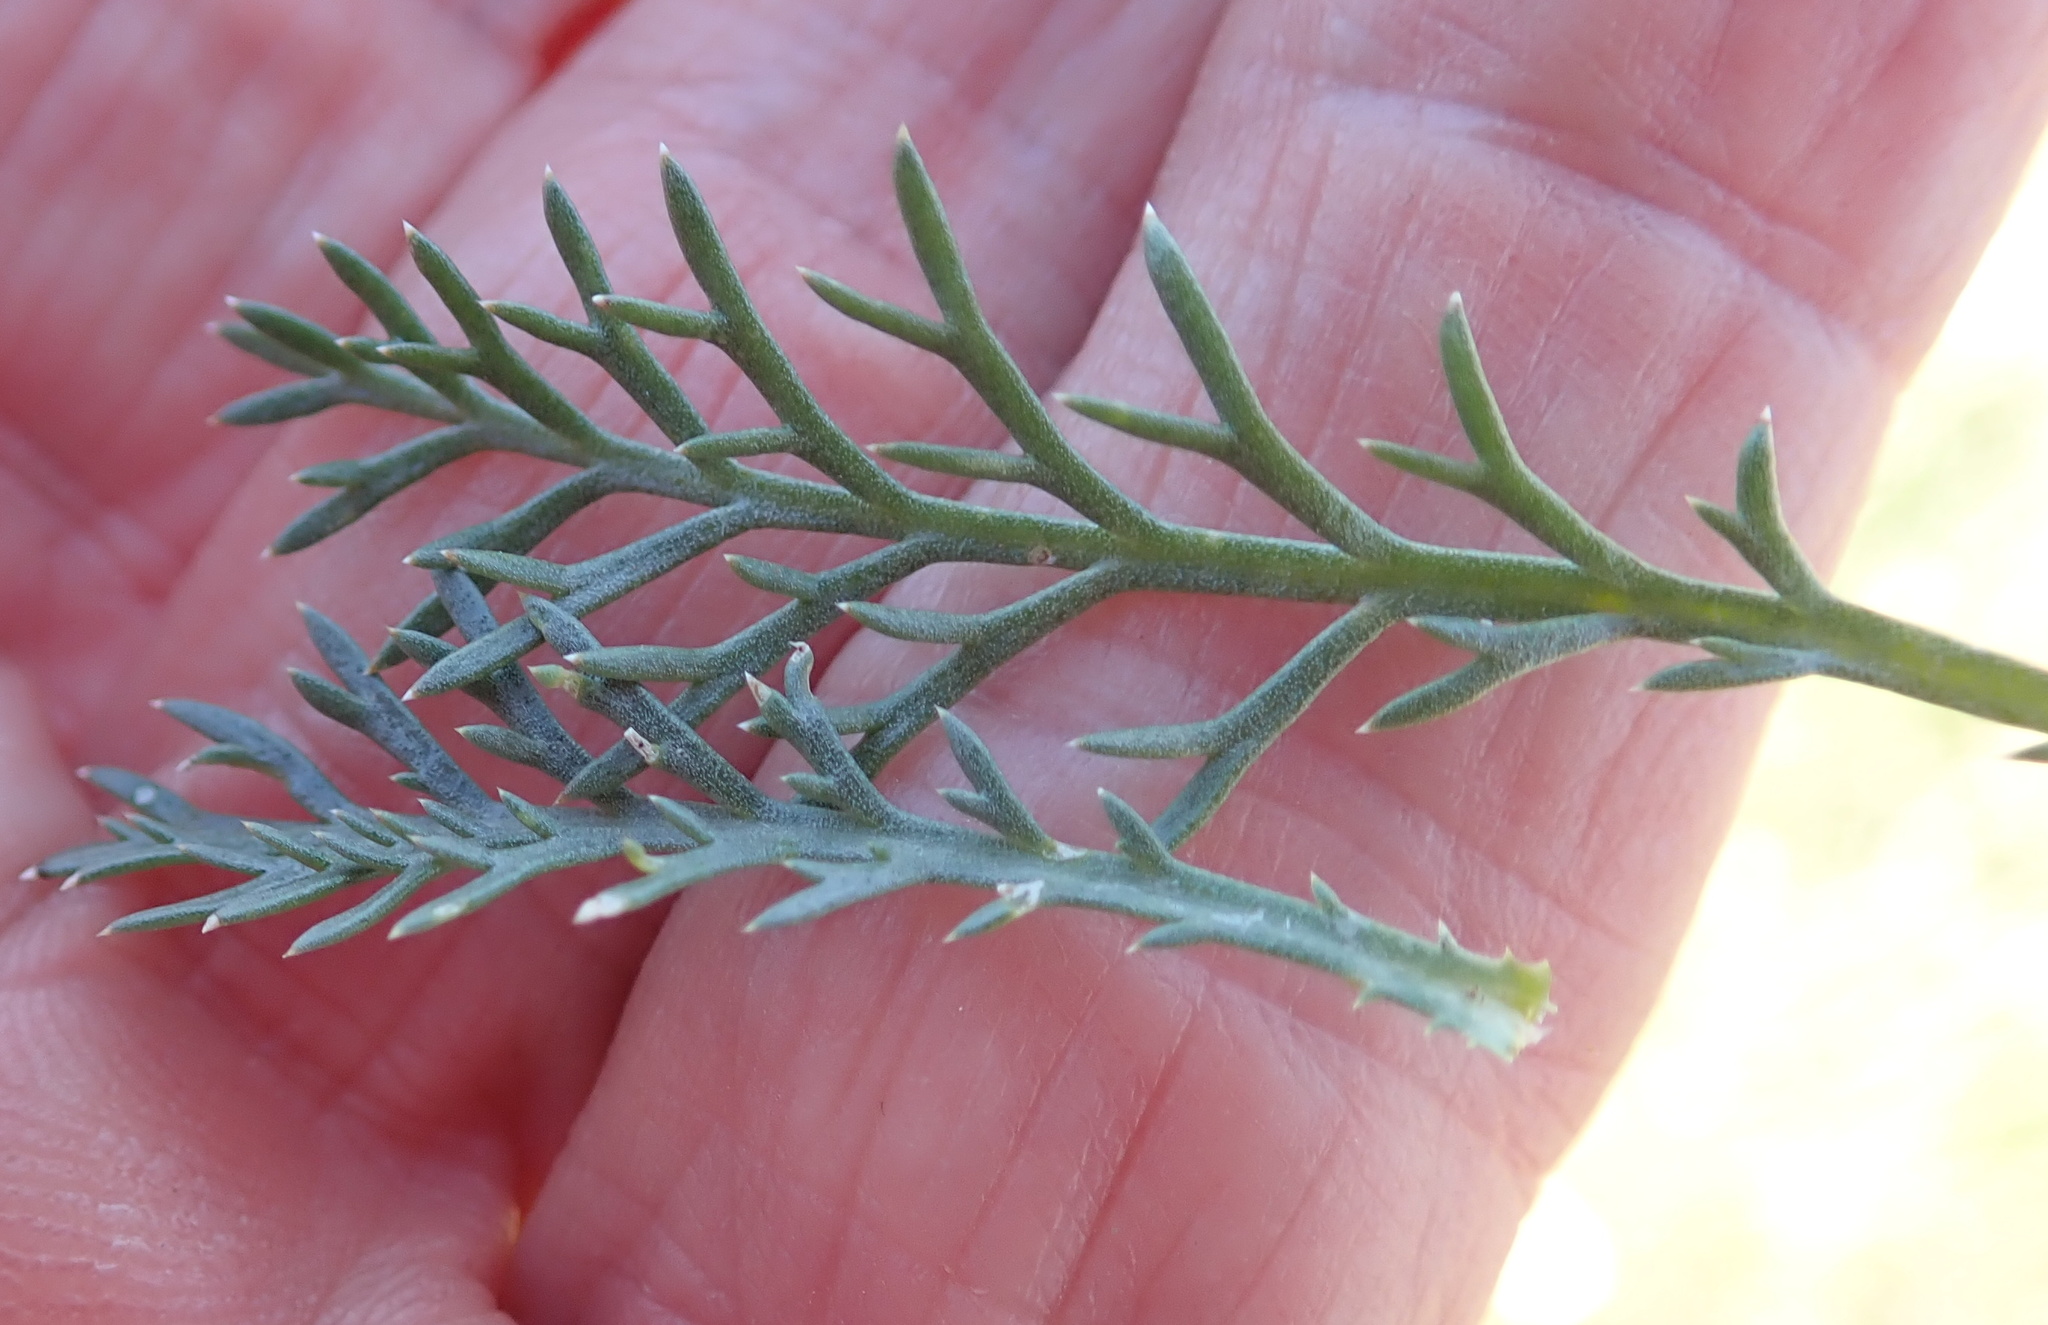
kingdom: Plantae
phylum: Tracheophyta
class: Magnoliopsida
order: Asterales
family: Asteraceae
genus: Lasiospermum
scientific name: Lasiospermum bipinnatum
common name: Cocoonhead
